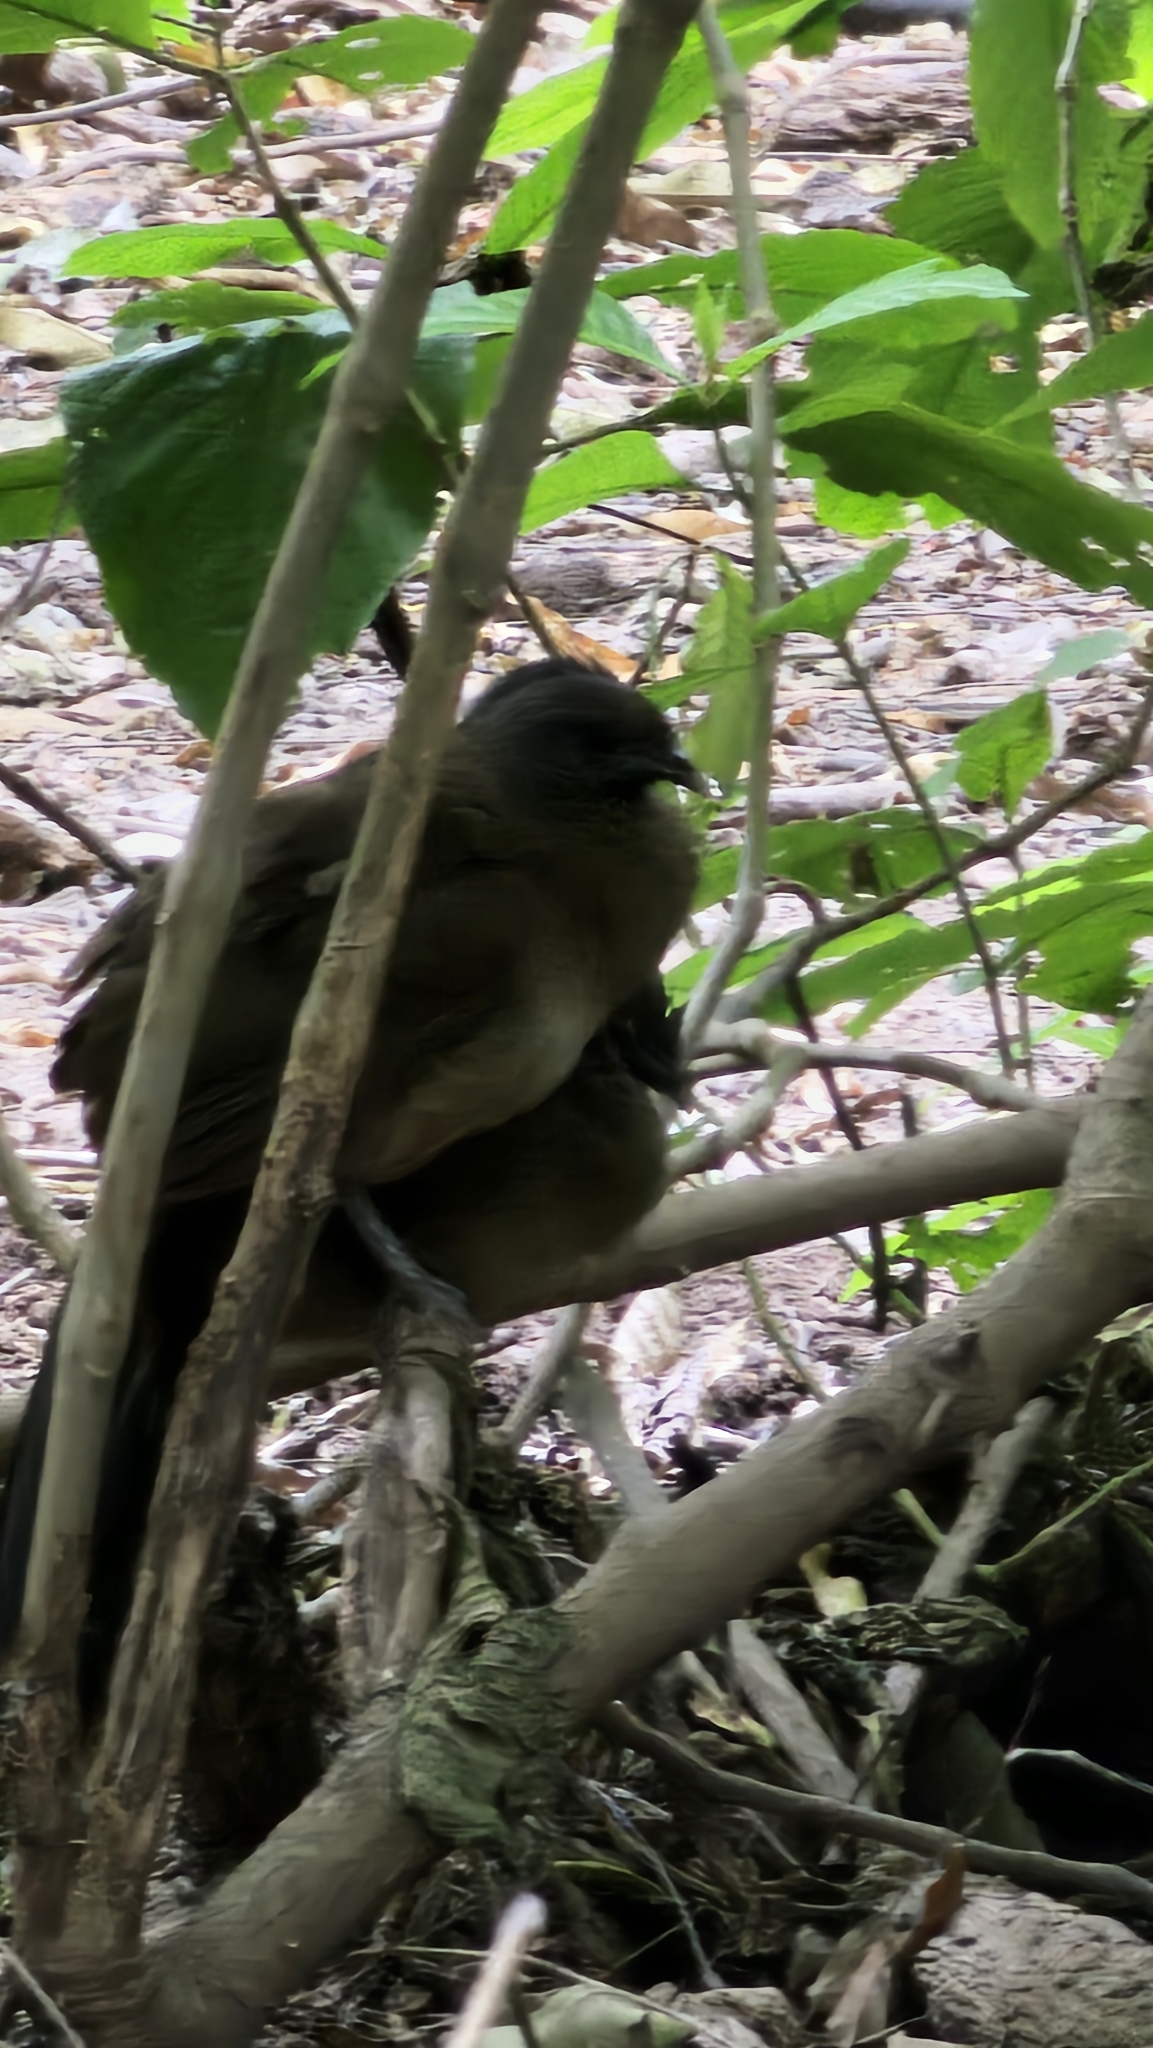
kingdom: Animalia
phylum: Chordata
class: Aves
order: Galliformes
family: Cracidae
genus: Ortalis
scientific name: Ortalis vetula
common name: Plain chachalaca
